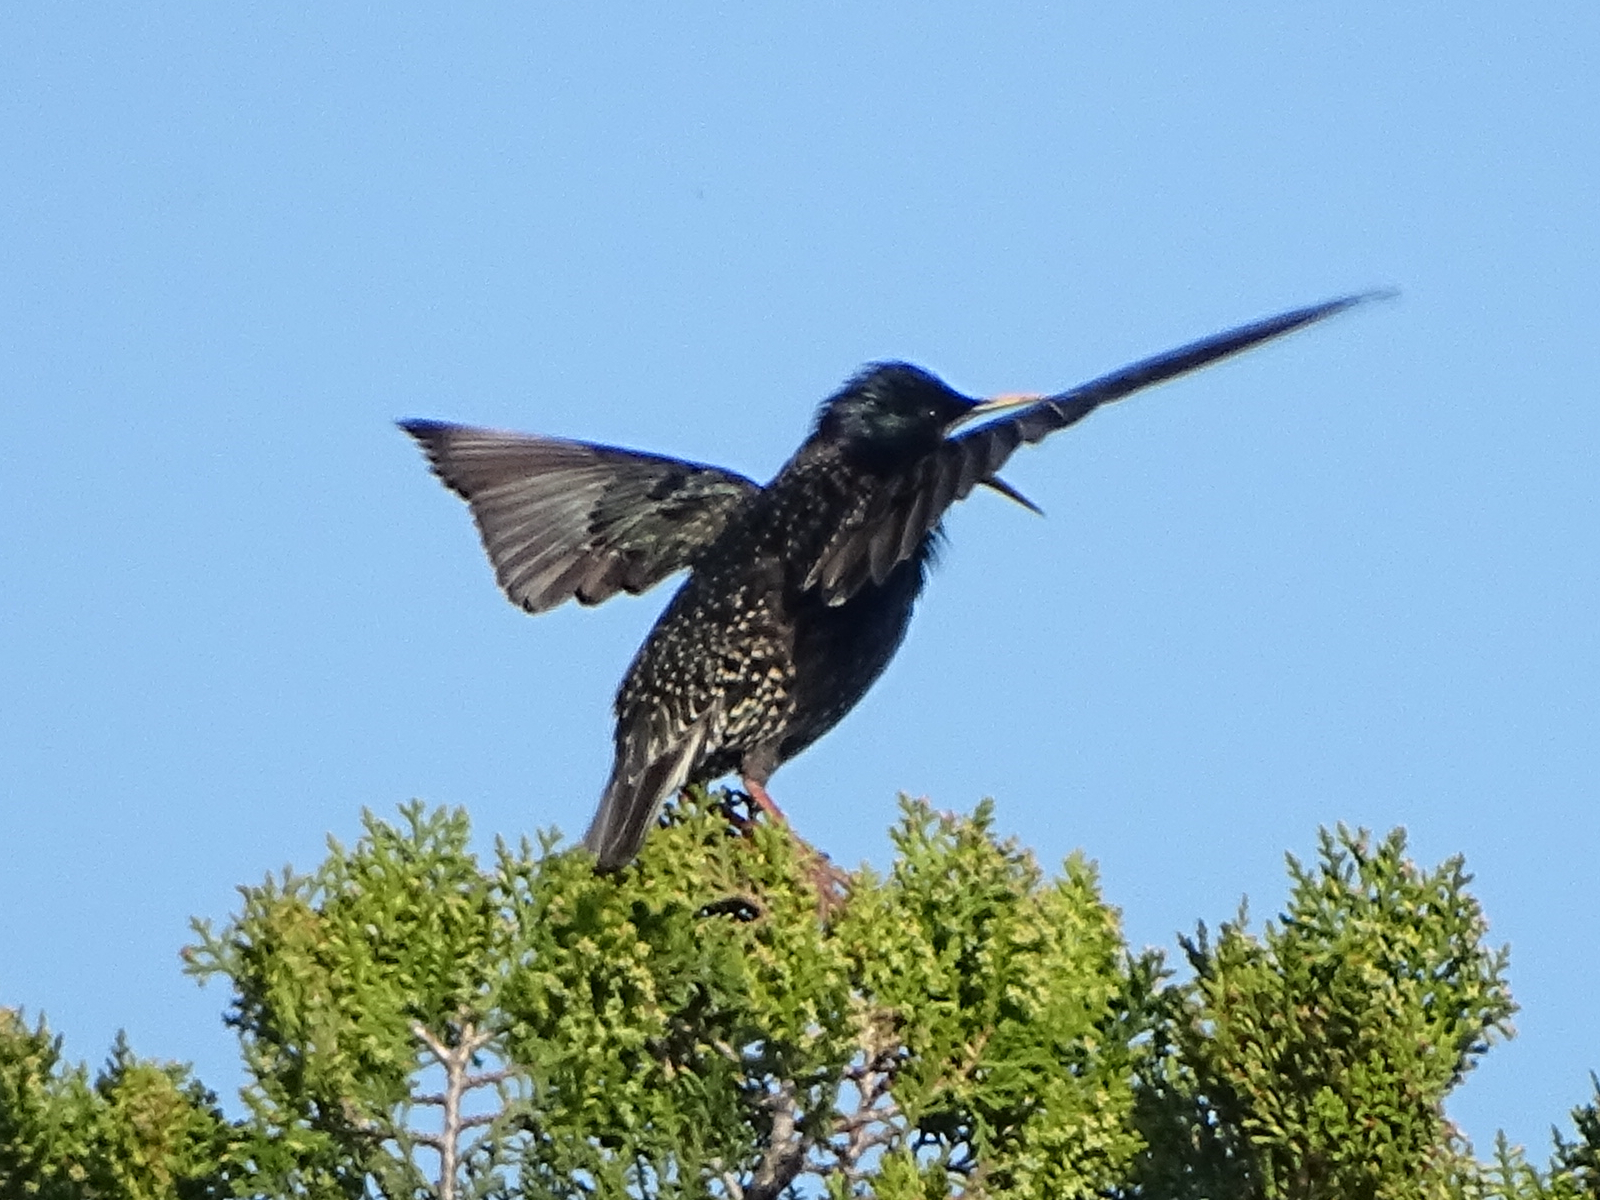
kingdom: Animalia
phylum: Chordata
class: Aves
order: Passeriformes
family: Sturnidae
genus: Sturnus
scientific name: Sturnus vulgaris
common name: Common starling
